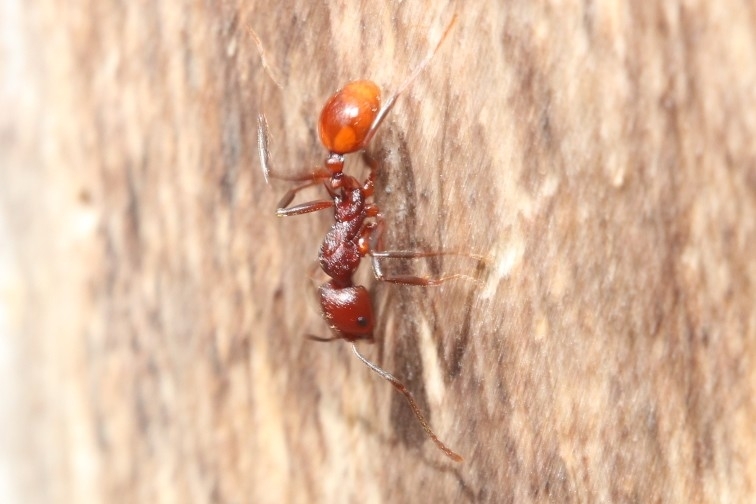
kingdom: Animalia
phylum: Arthropoda
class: Insecta
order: Hymenoptera
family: Formicidae
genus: Aphaenogaster
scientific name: Aphaenogaster tennesseensis
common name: Tennessee thread-waisted ant
